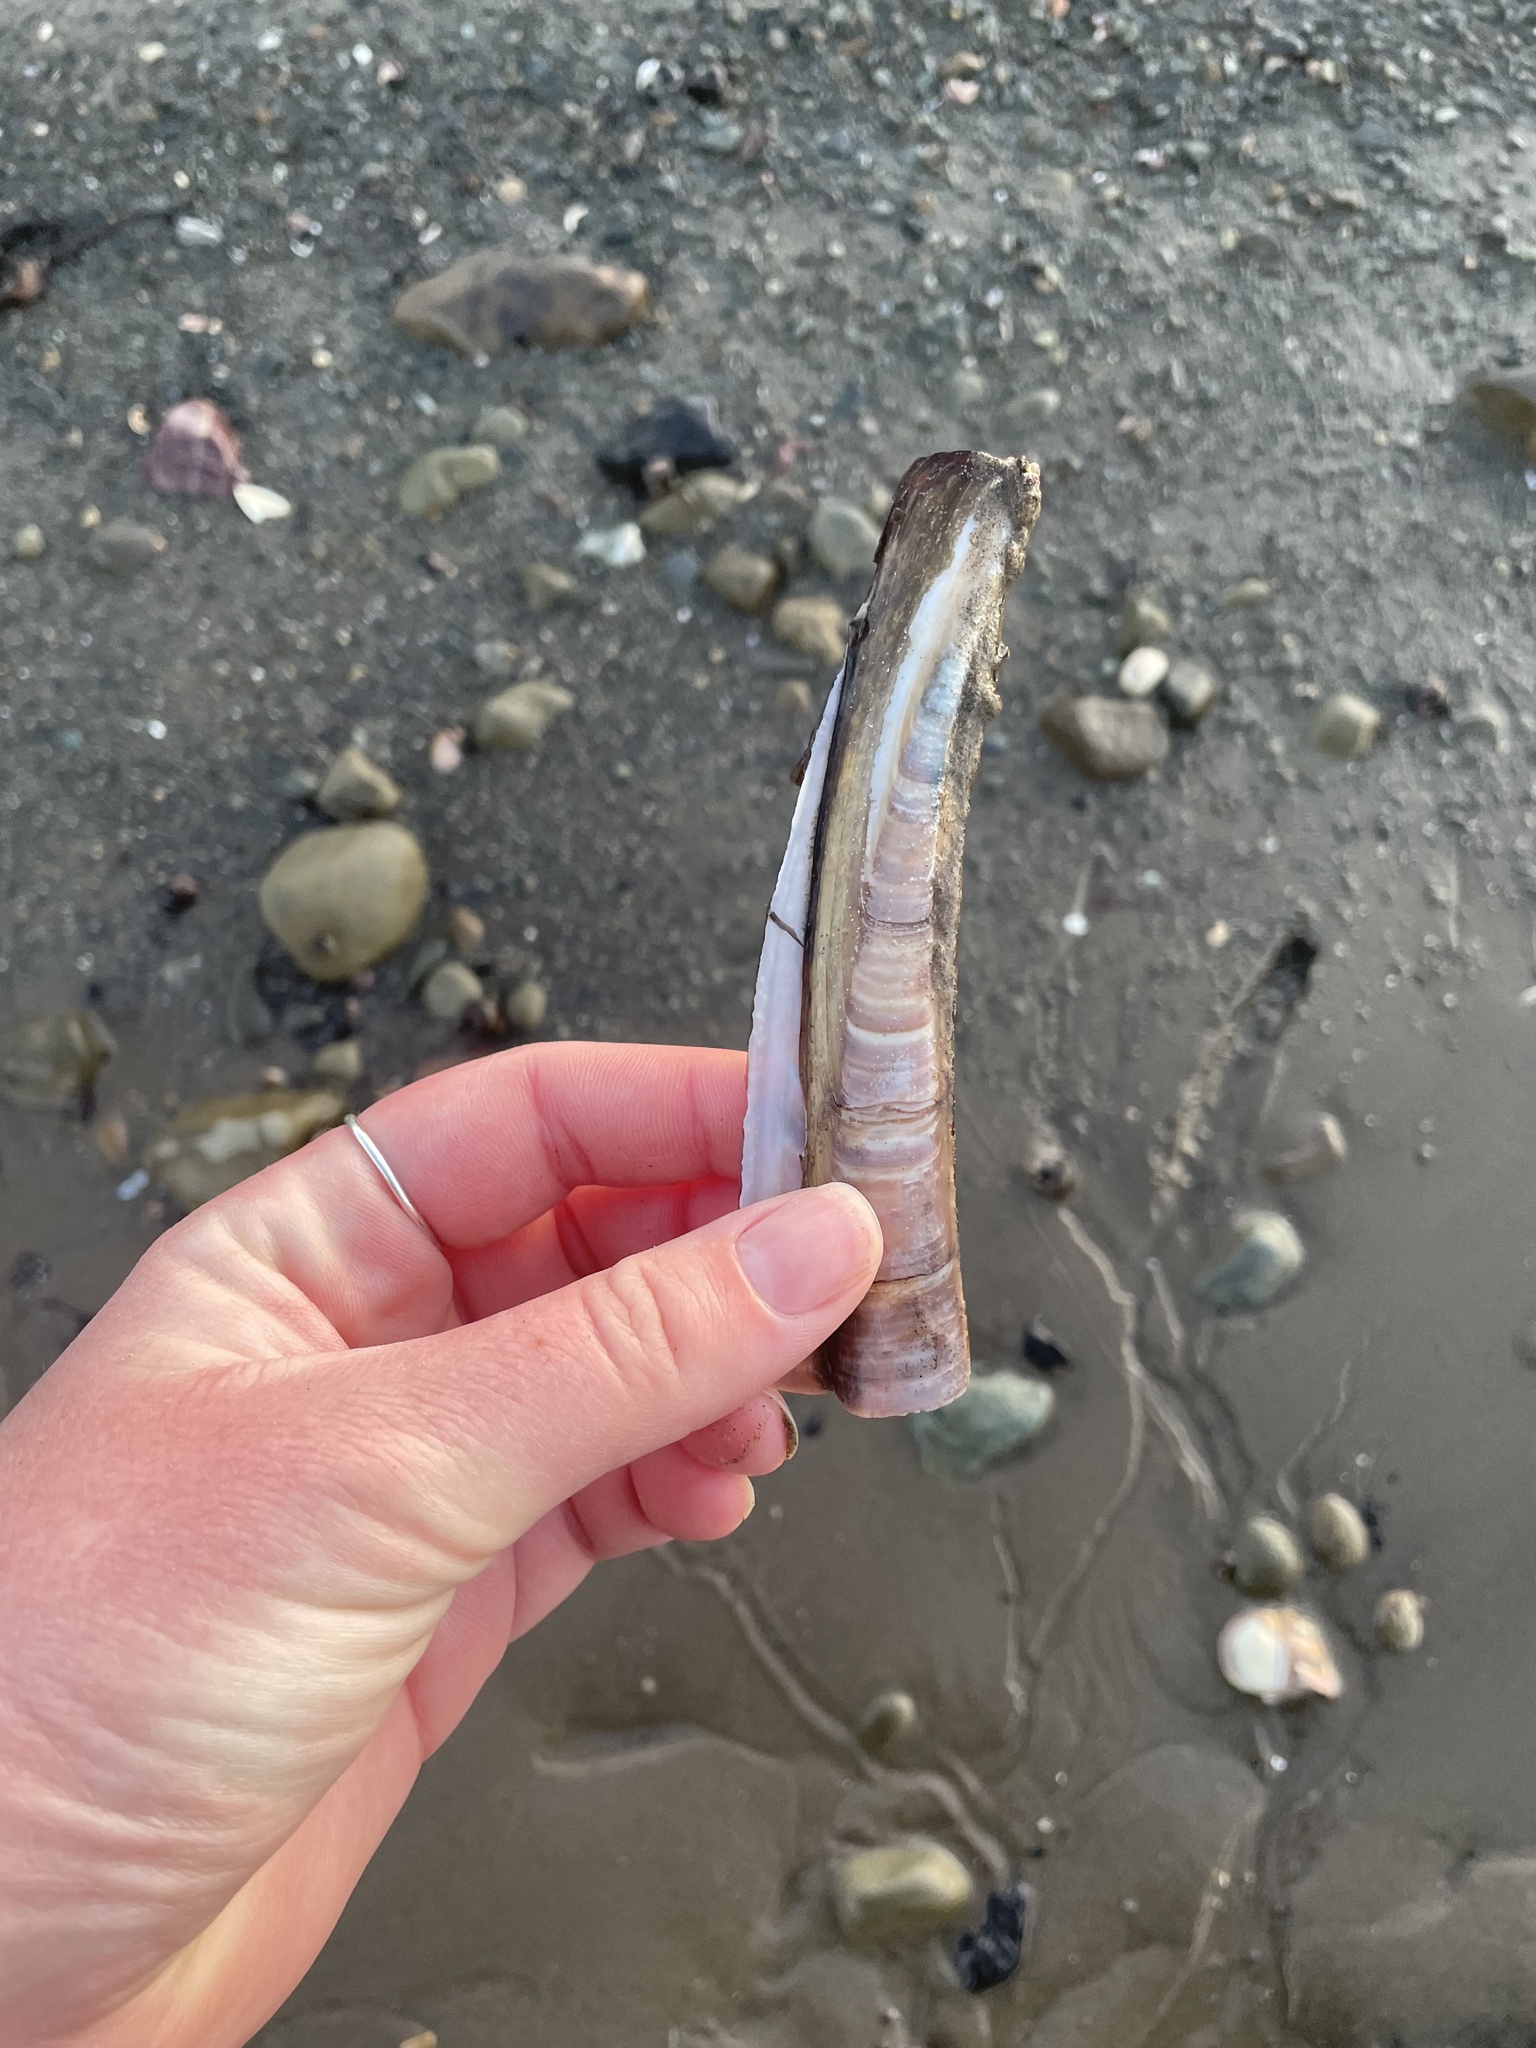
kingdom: Animalia
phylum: Mollusca
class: Bivalvia
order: Adapedonta
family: Pharidae
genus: Ensis
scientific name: Ensis leei
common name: American jack knife clam
